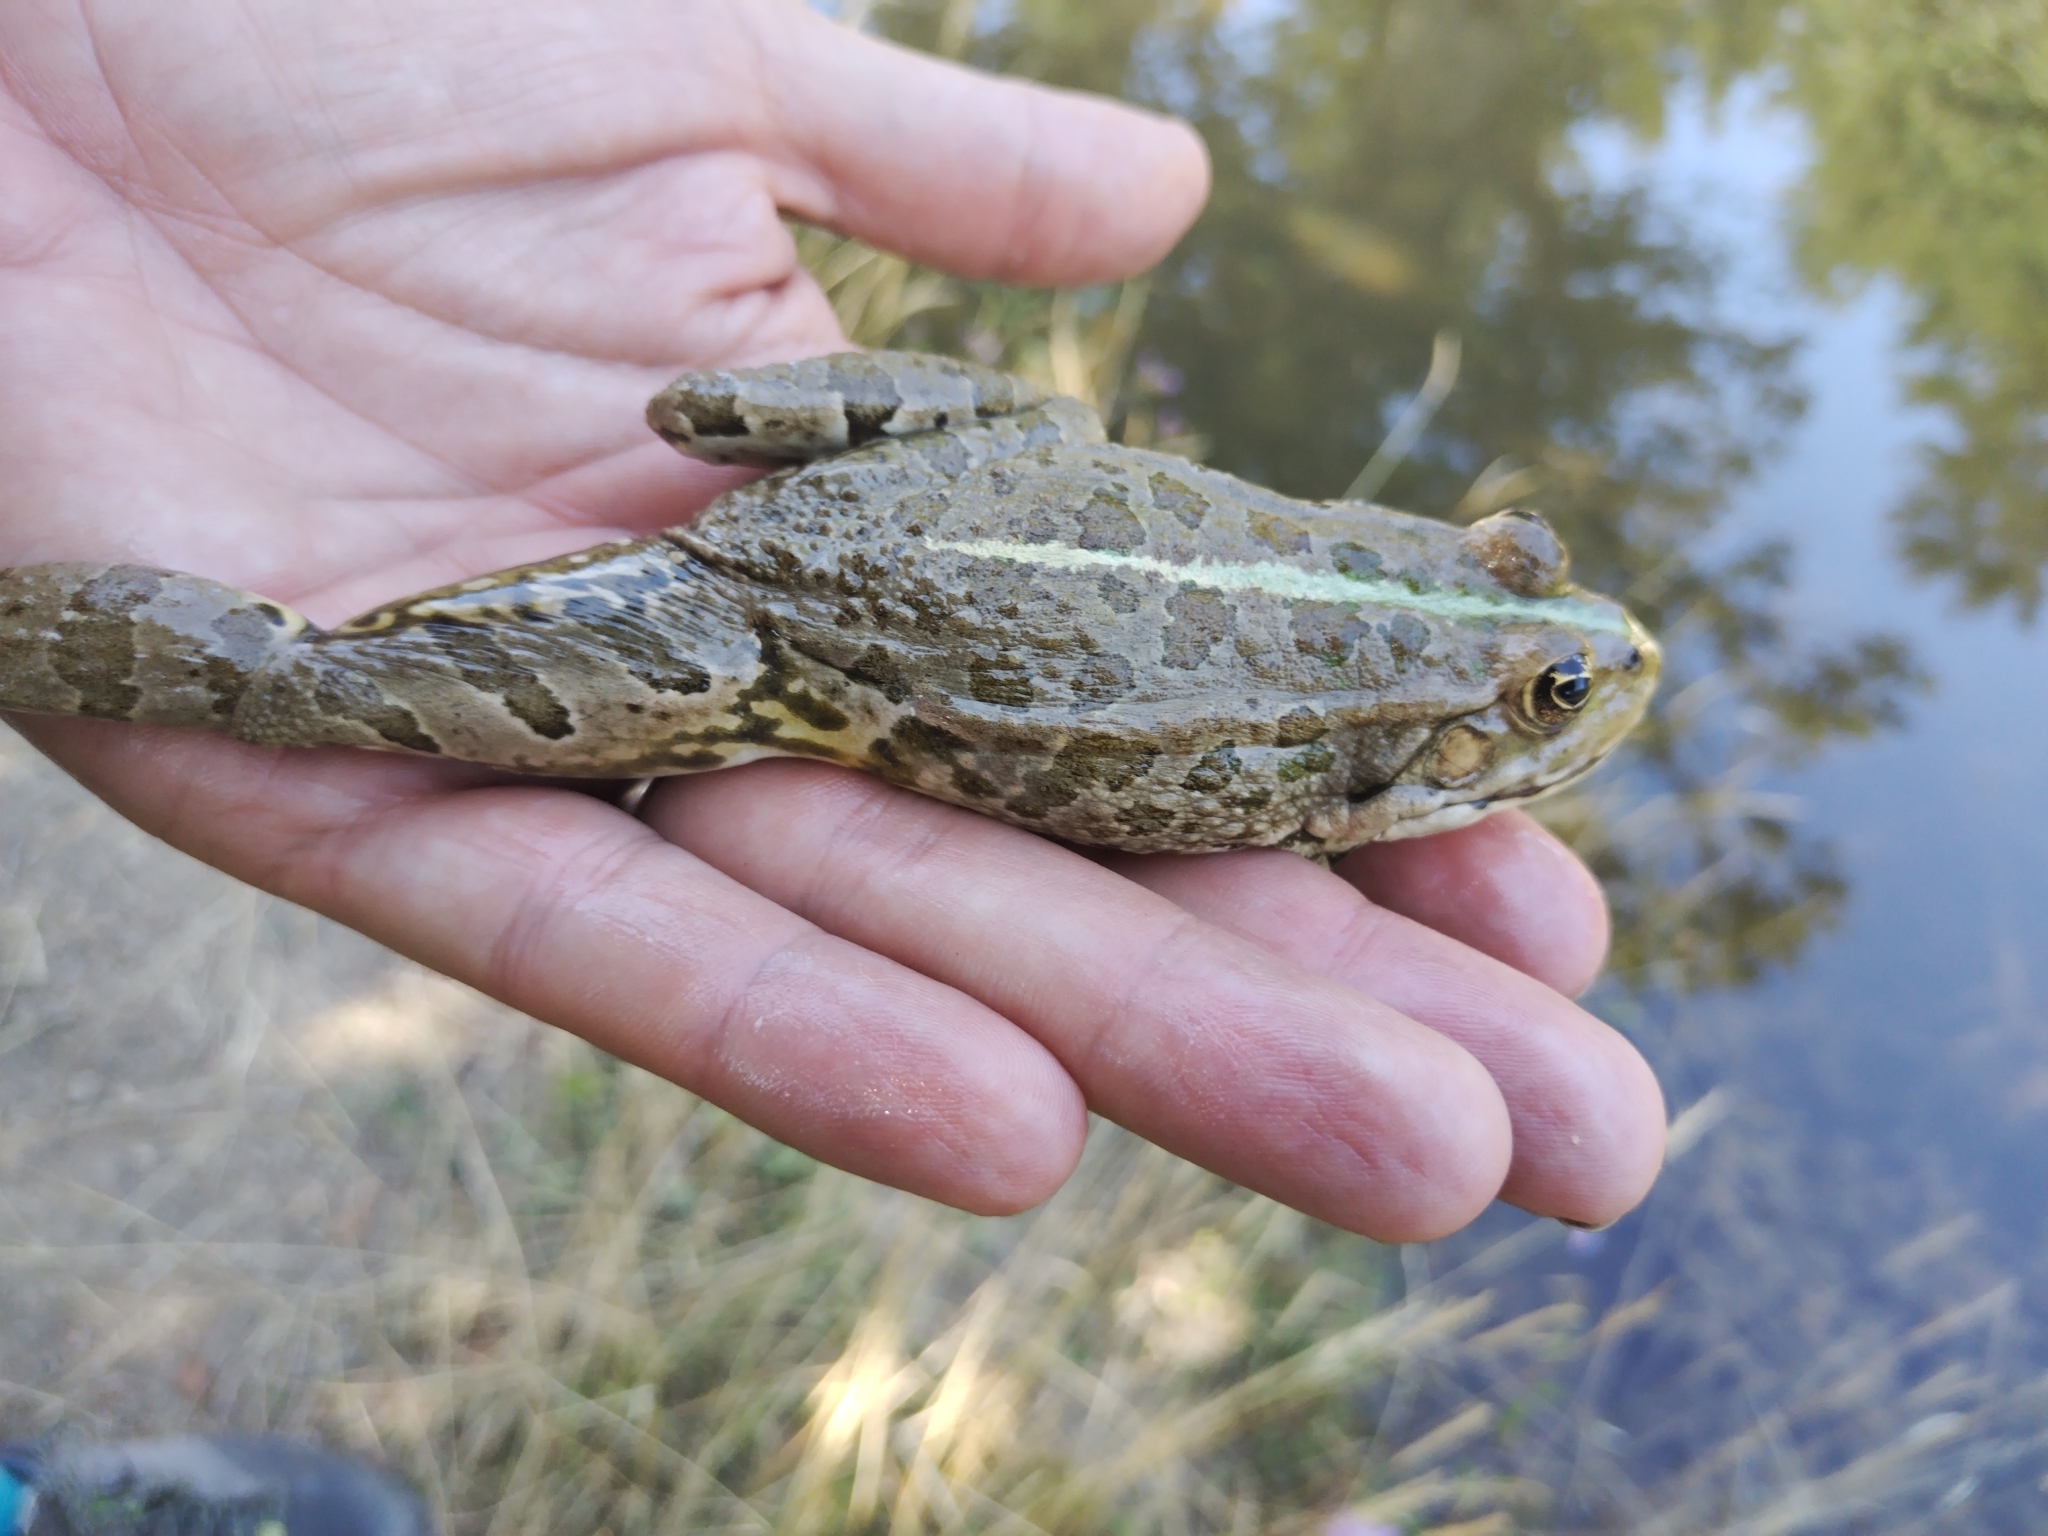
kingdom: Animalia
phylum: Chordata
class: Amphibia
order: Anura
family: Ranidae
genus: Pelophylax
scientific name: Pelophylax
